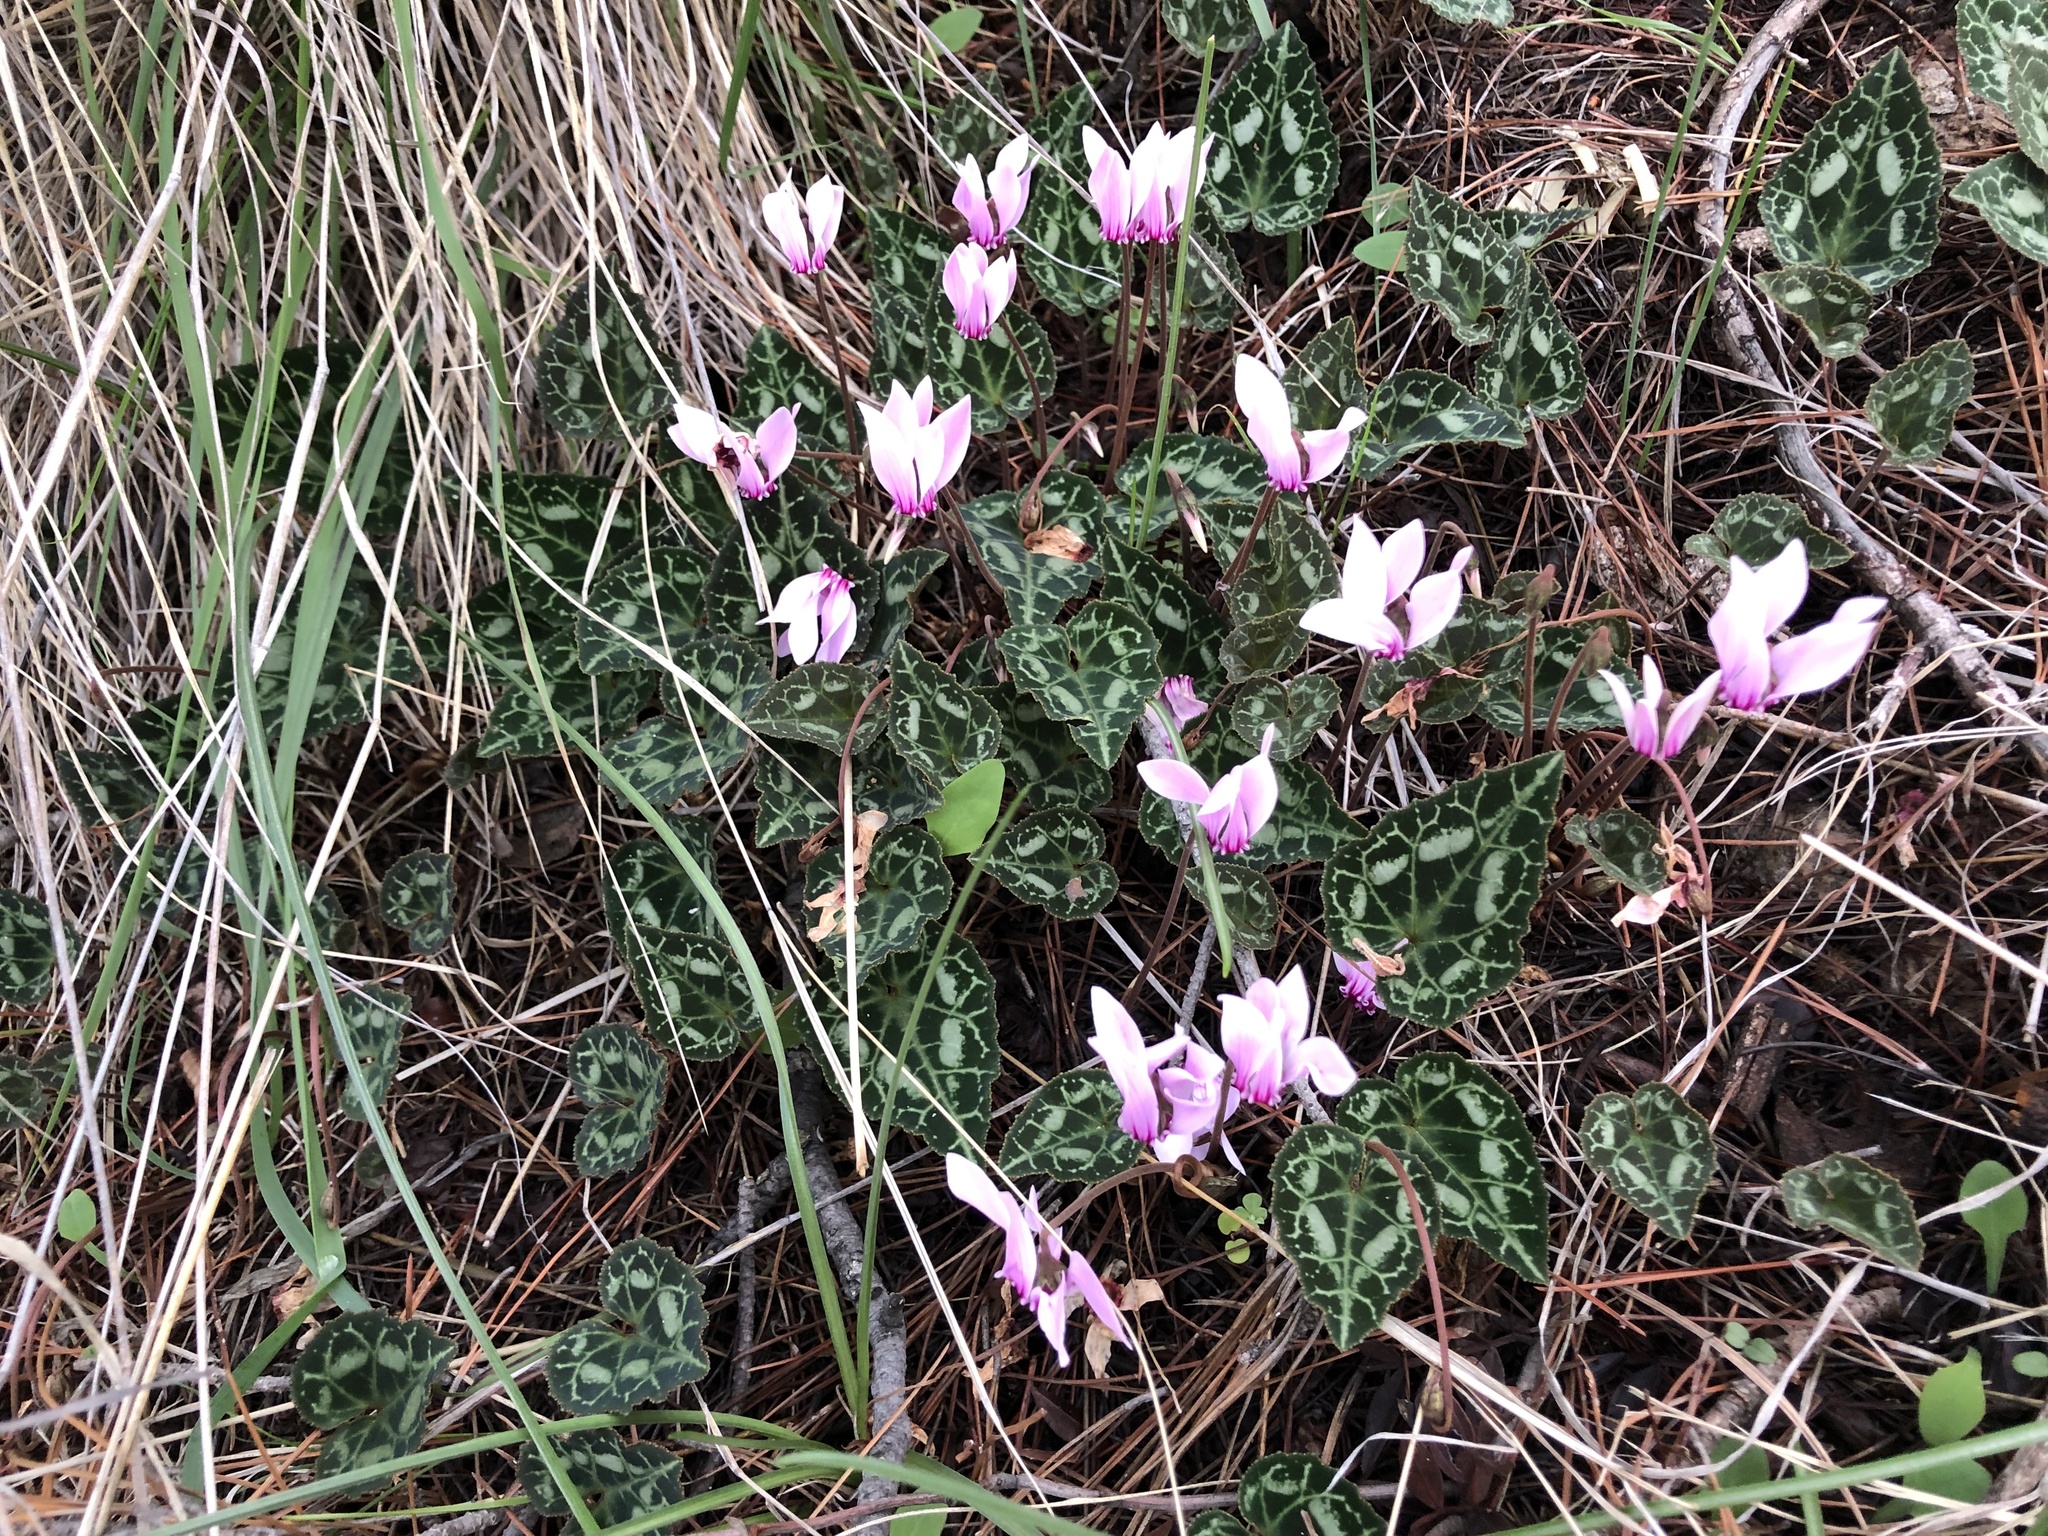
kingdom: Plantae
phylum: Tracheophyta
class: Magnoliopsida
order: Ericales
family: Primulaceae
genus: Cyclamen
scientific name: Cyclamen graecum
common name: Greek cyclamen
